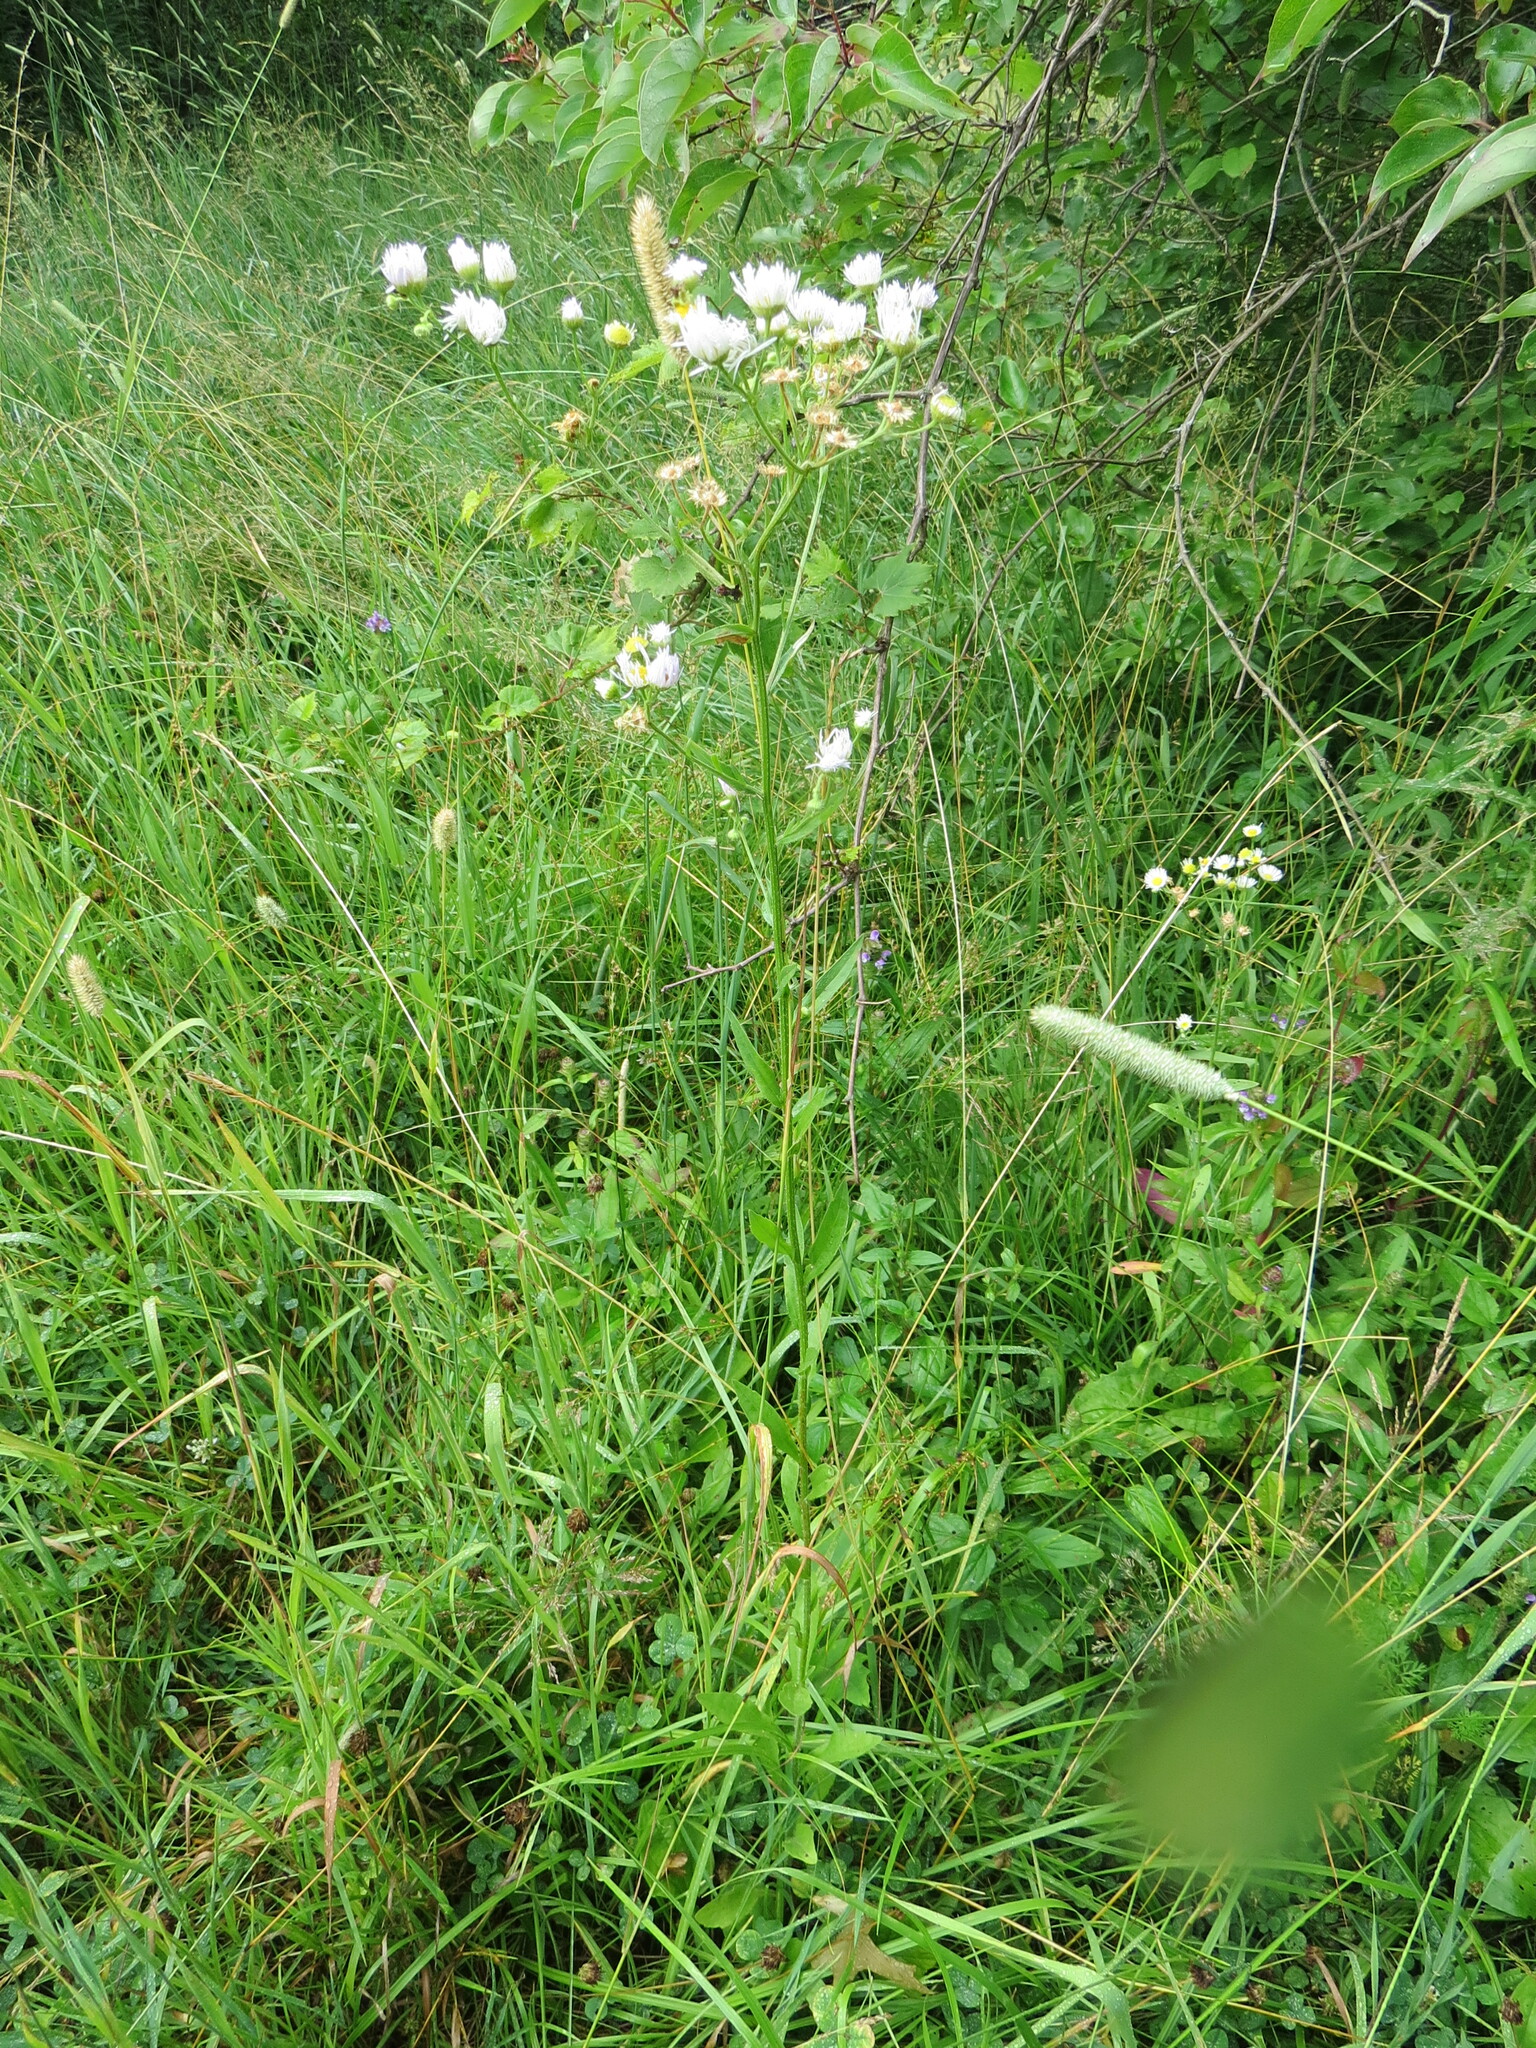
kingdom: Plantae
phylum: Tracheophyta
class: Magnoliopsida
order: Asterales
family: Asteraceae
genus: Erigeron
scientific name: Erigeron strigosus
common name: Common eastern fleabane
